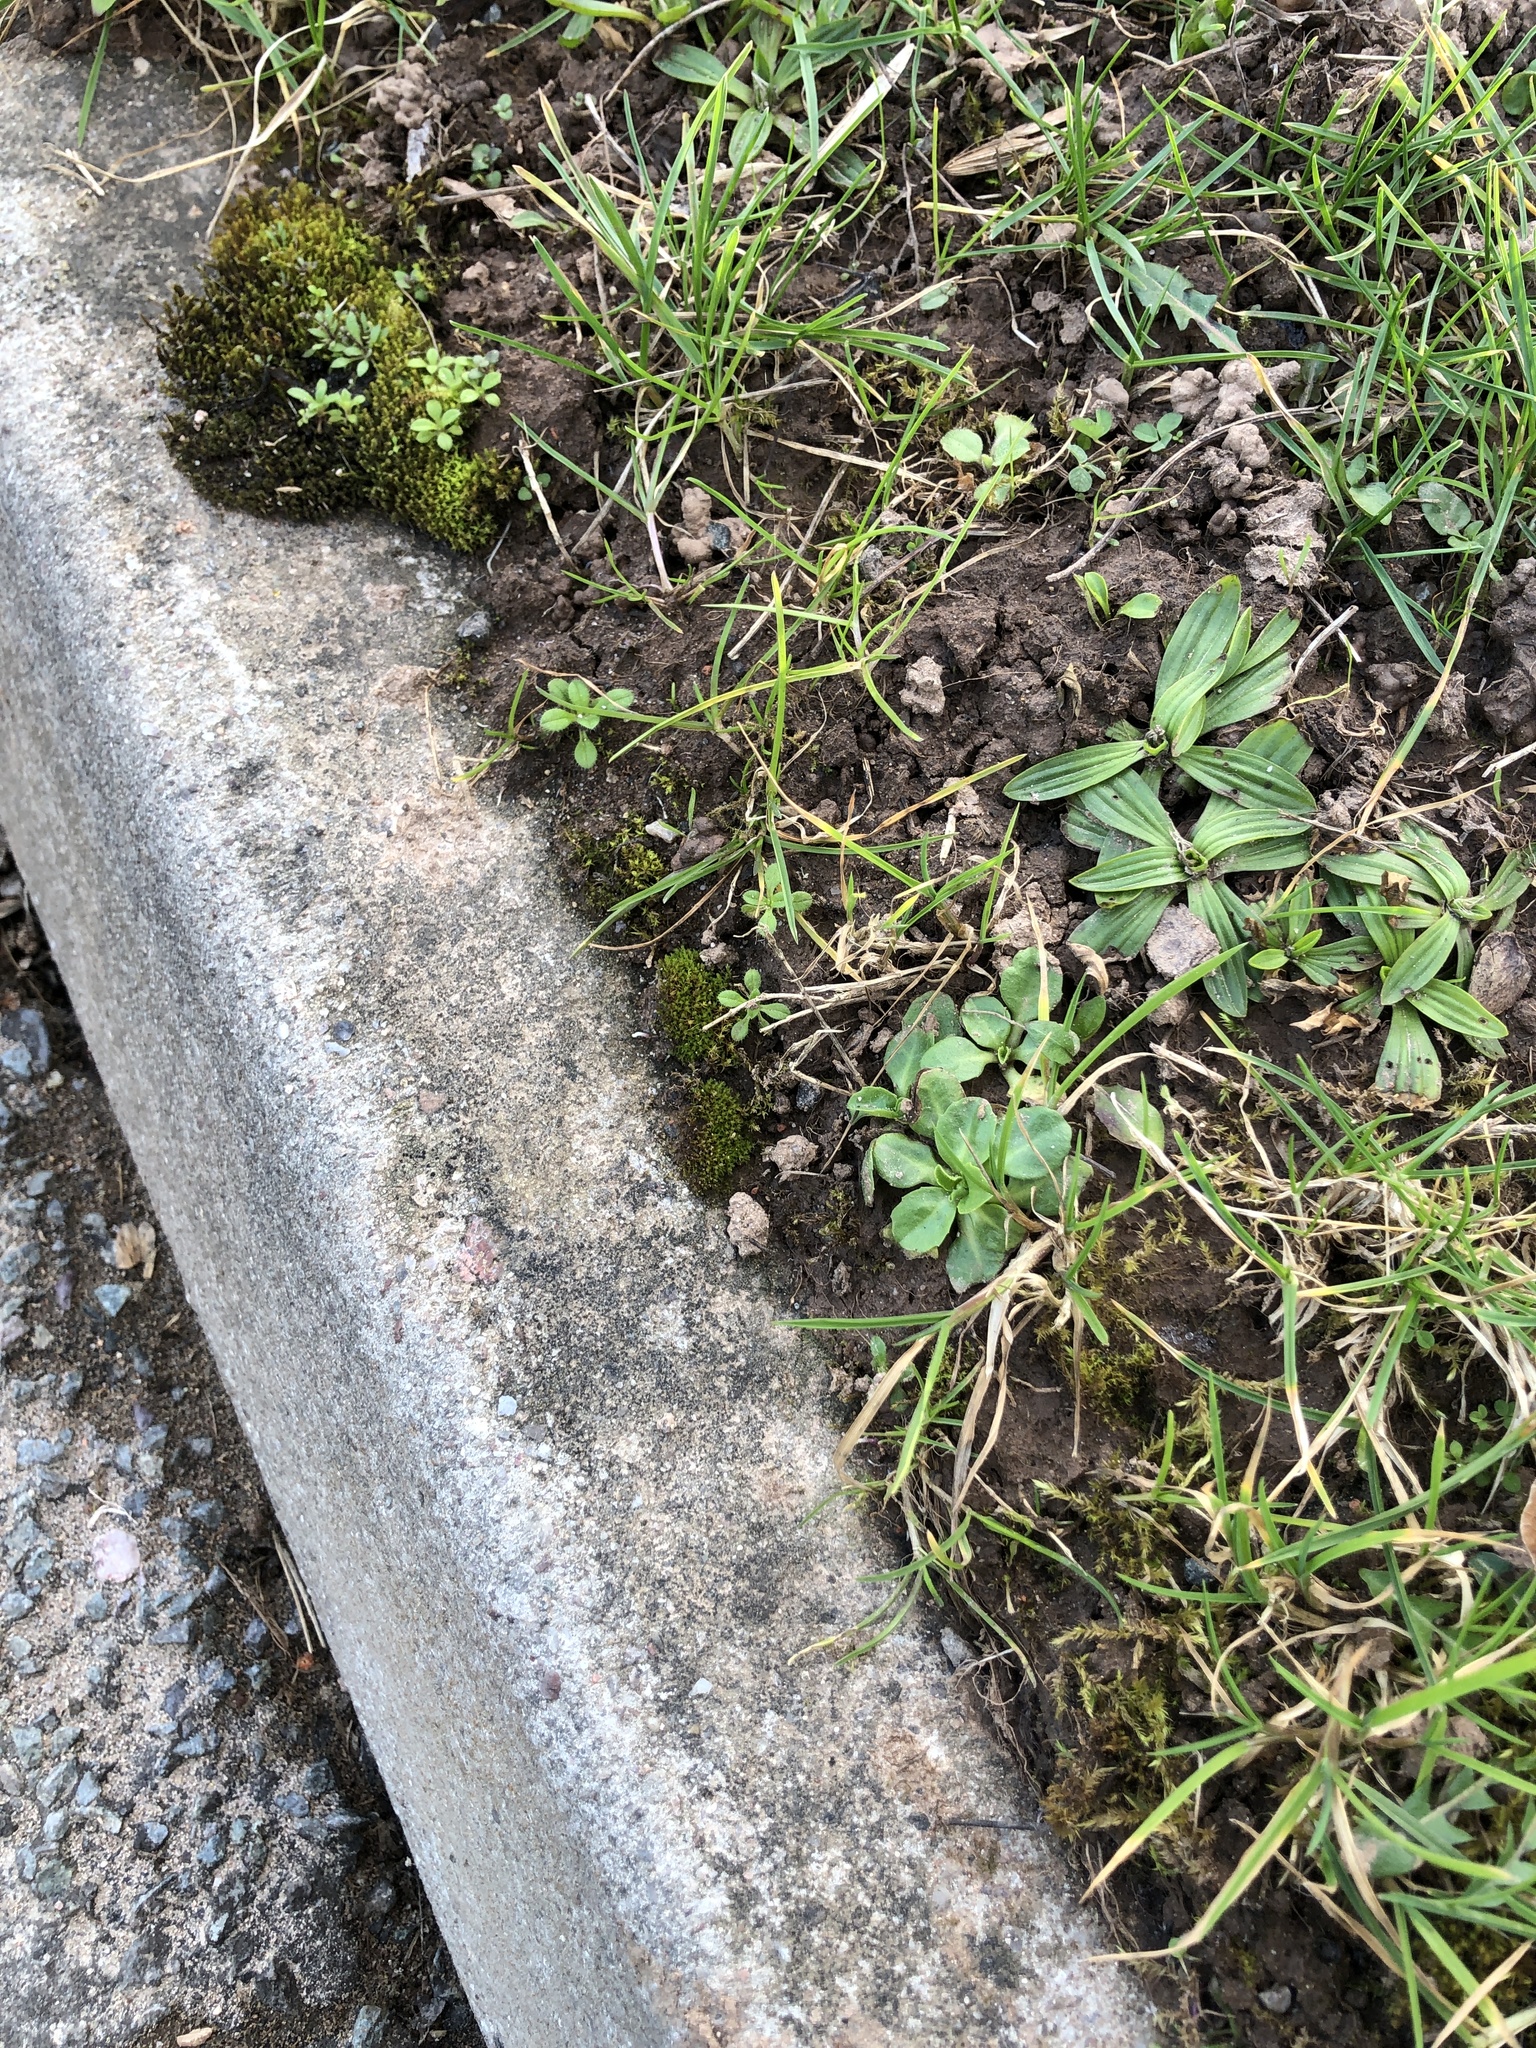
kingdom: Plantae
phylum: Bryophyta
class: Bryopsida
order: Pottiales
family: Pottiaceae
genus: Geheebia
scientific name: Geheebia lurida
